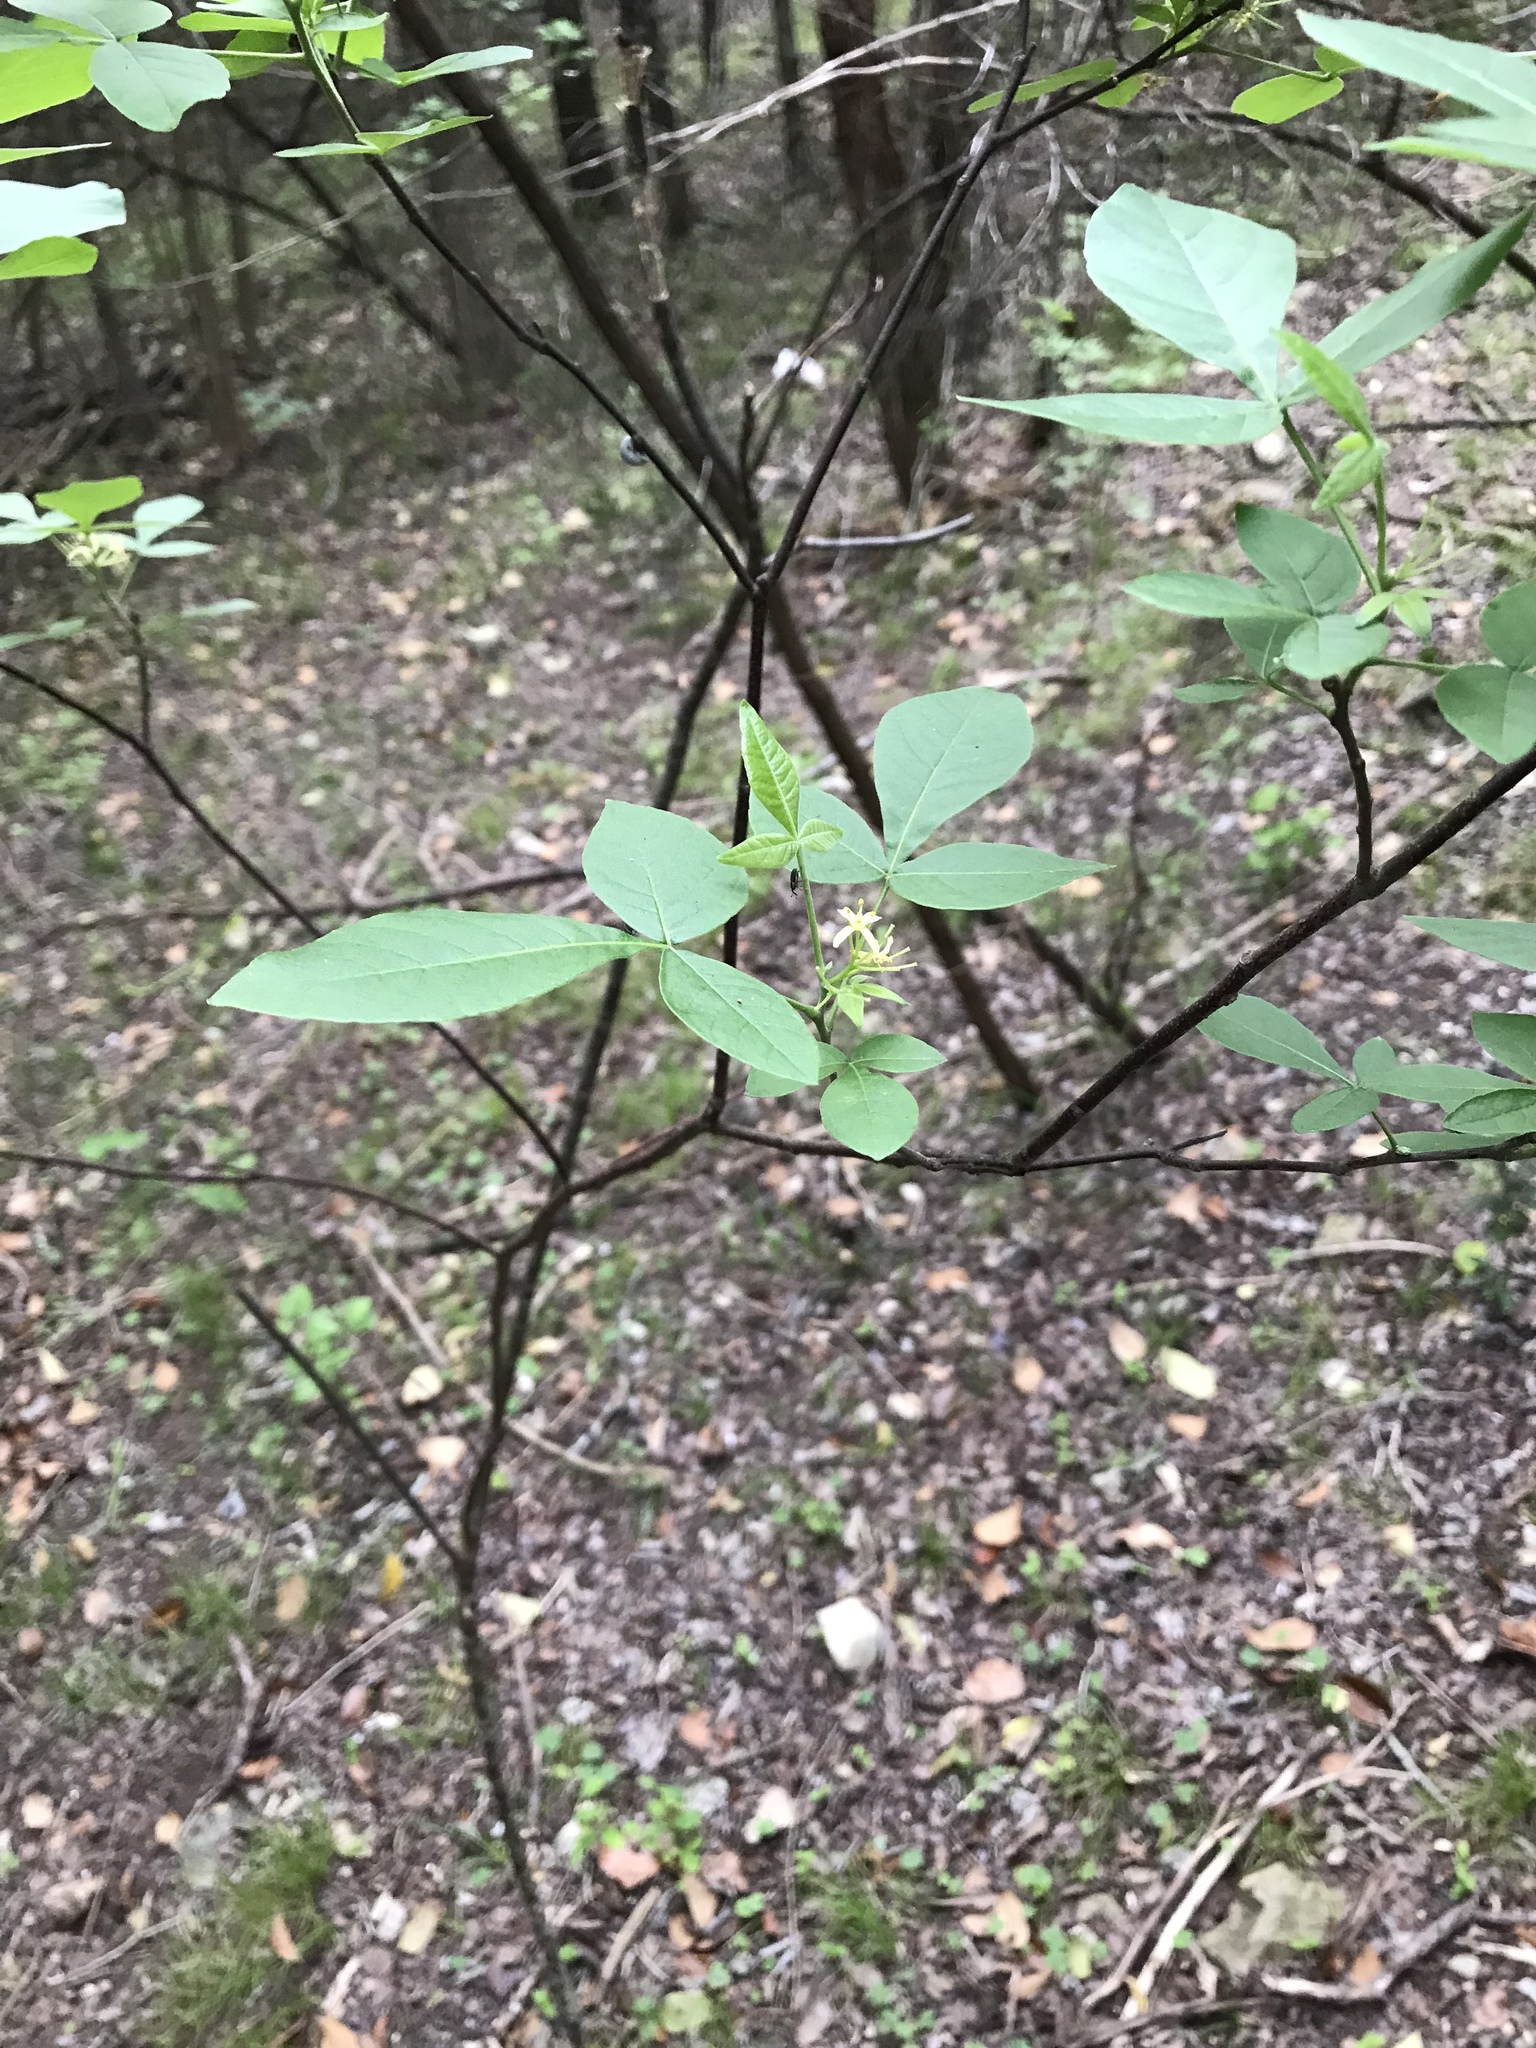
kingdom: Plantae
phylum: Tracheophyta
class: Magnoliopsida
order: Sapindales
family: Rutaceae
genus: Ptelea
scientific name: Ptelea trifoliata
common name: Common hop-tree
